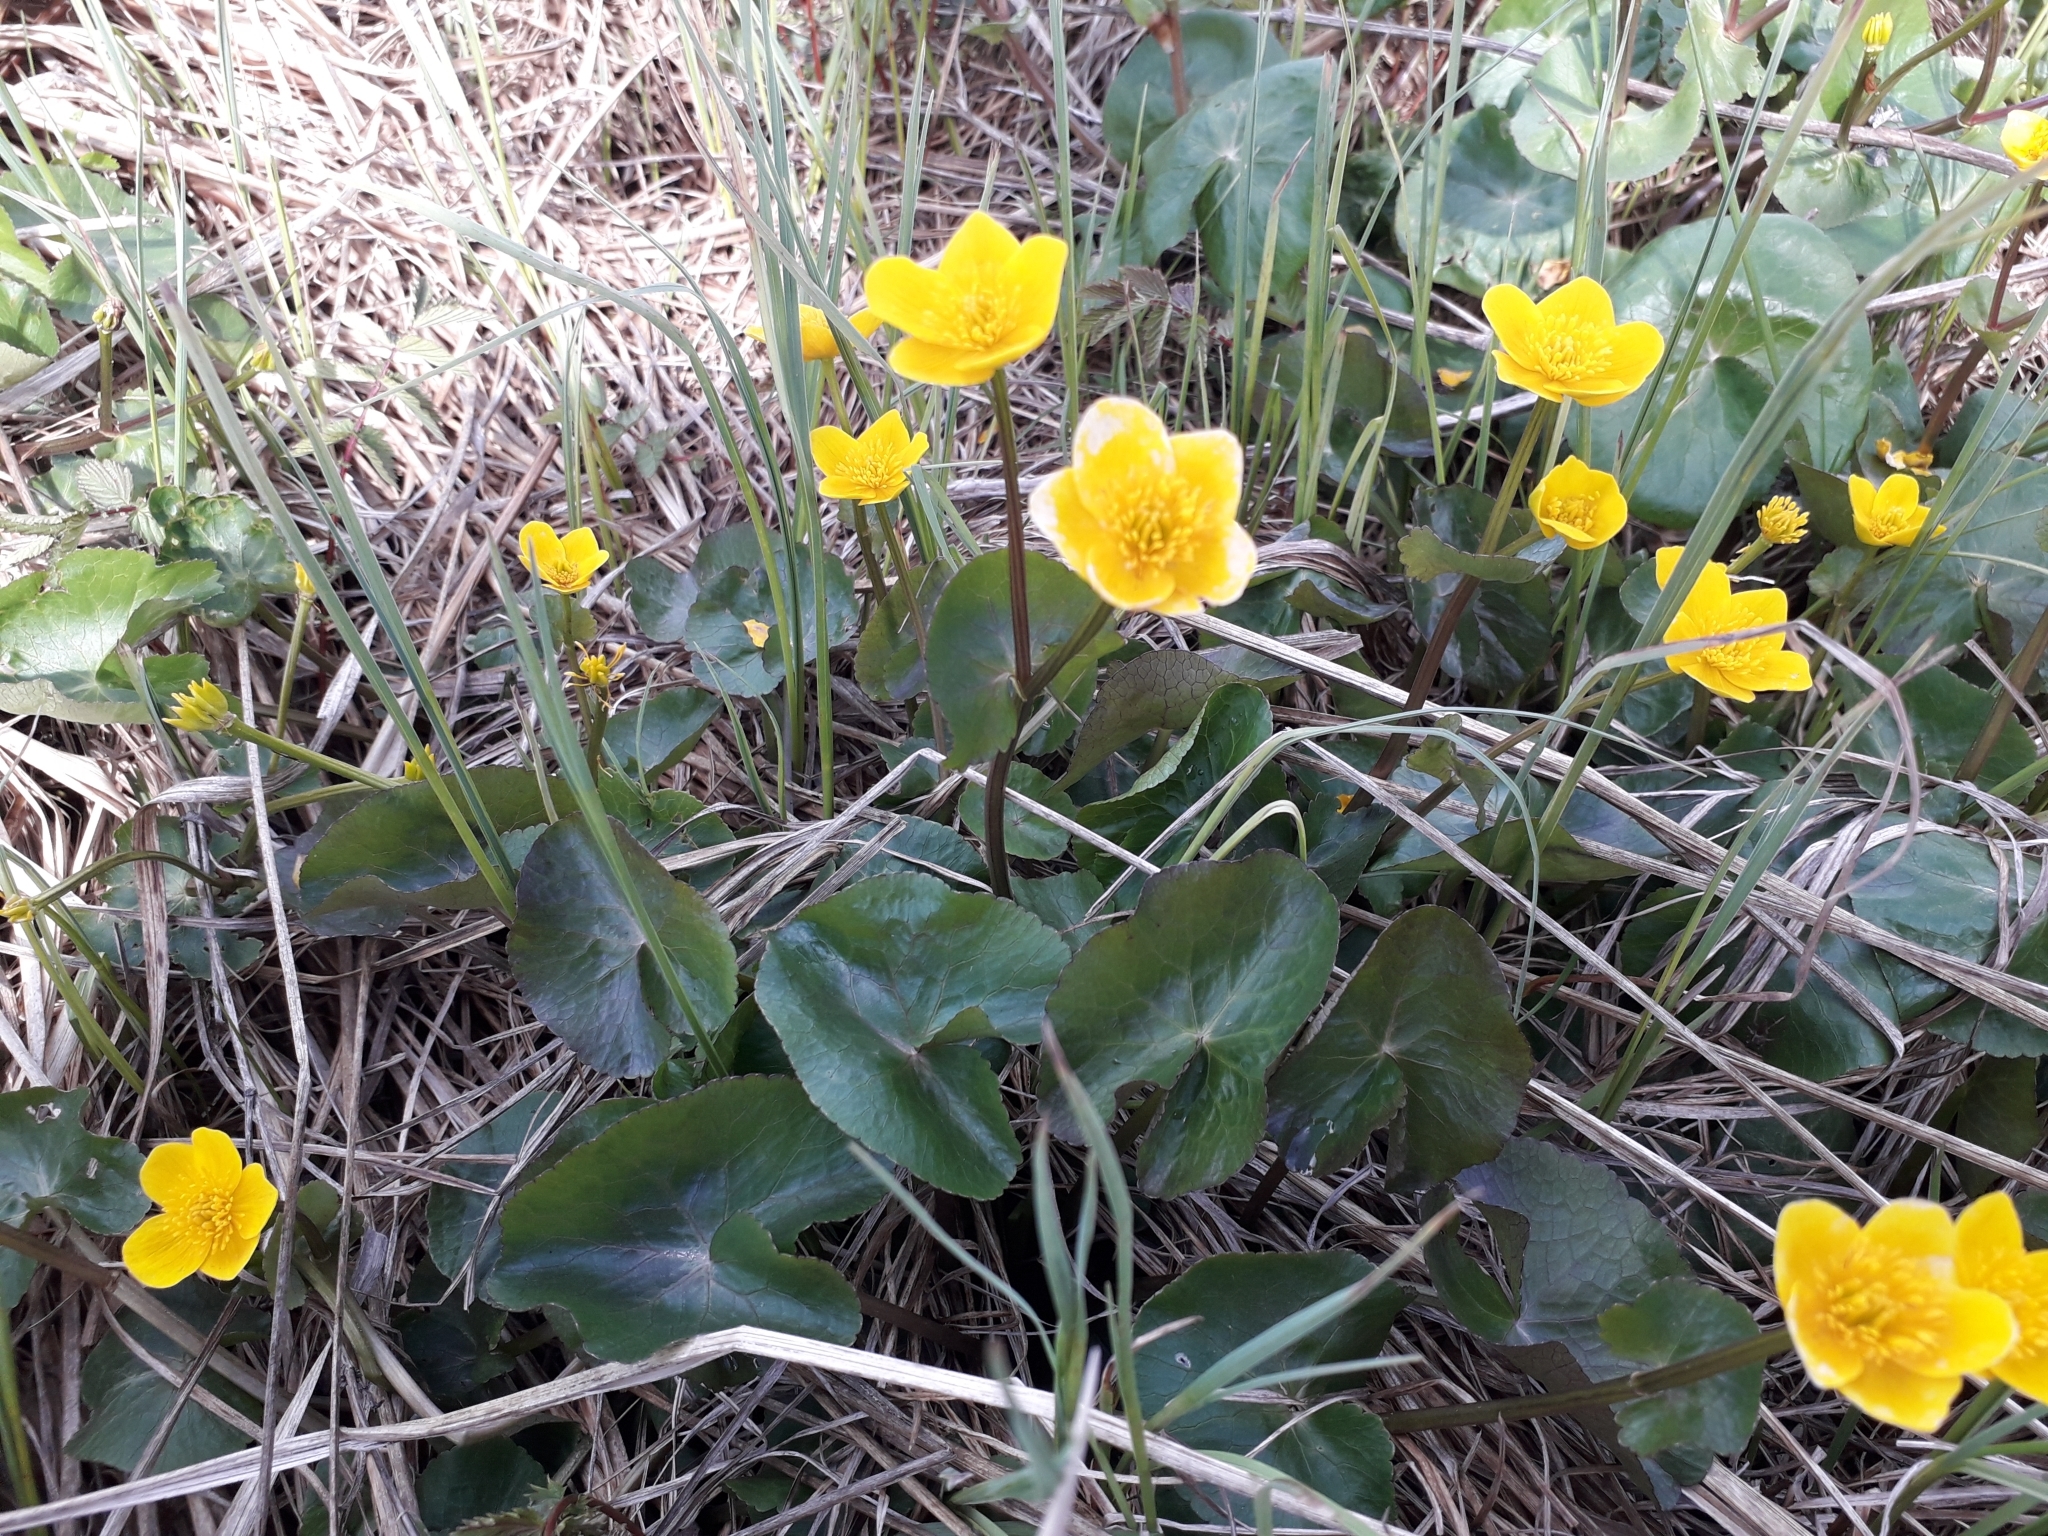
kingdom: Plantae
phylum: Tracheophyta
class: Magnoliopsida
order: Ranunculales
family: Ranunculaceae
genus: Caltha
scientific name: Caltha palustris
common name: Marsh marigold
